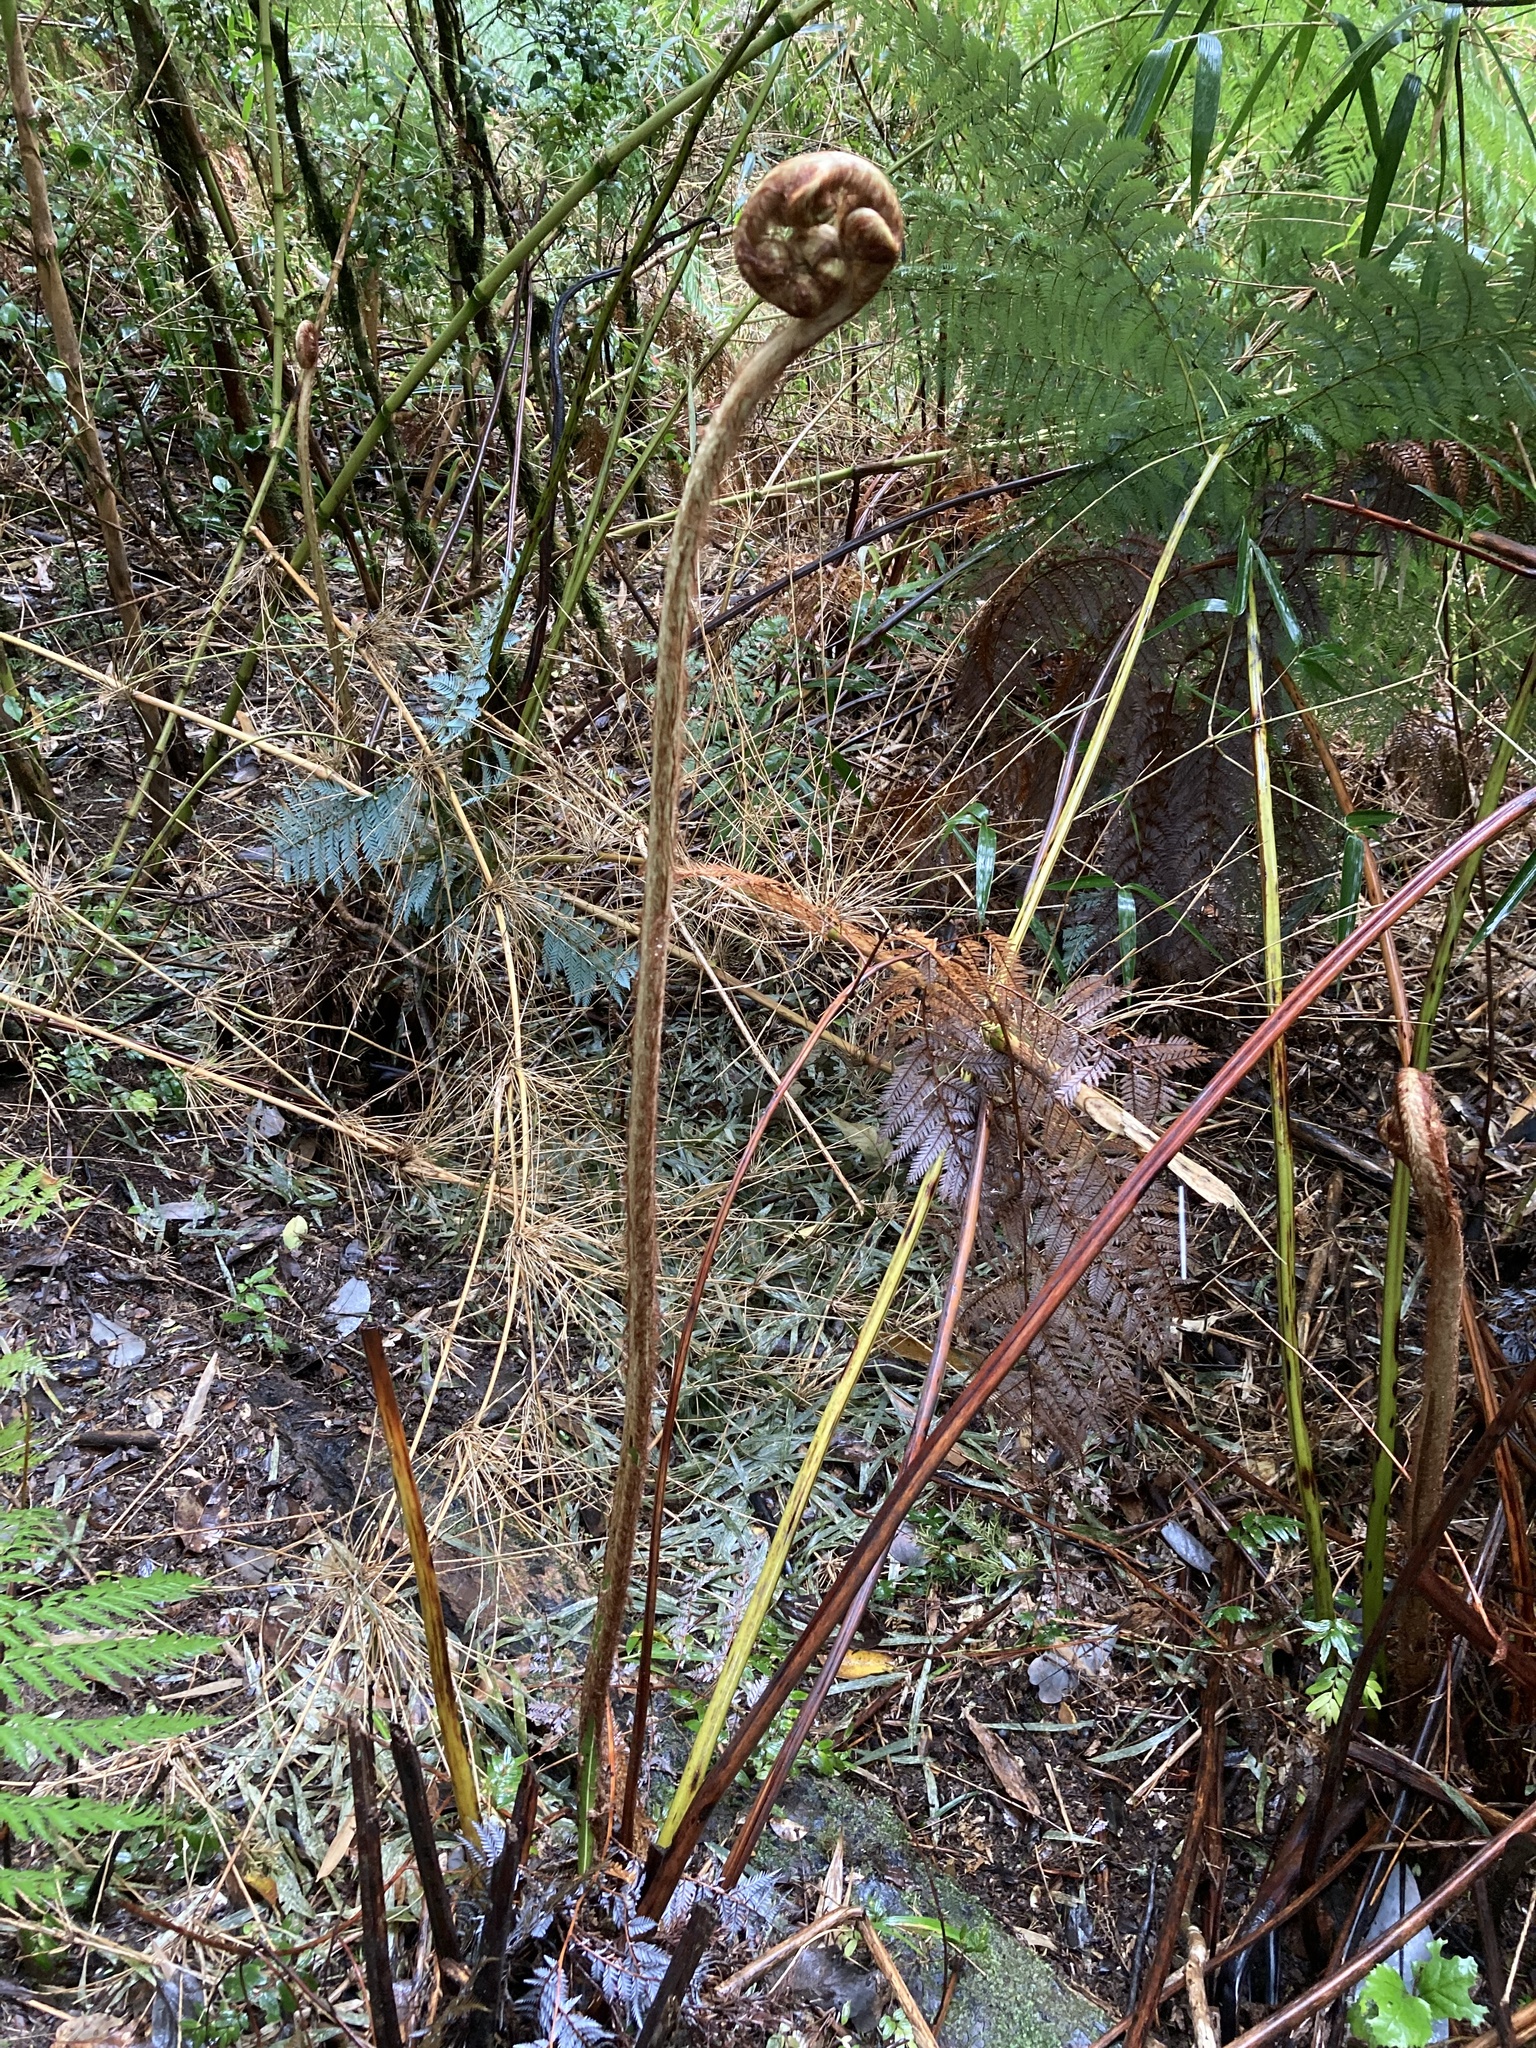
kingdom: Plantae
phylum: Tracheophyta
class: Polypodiopsida
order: Cyatheales
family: Dicksoniaceae
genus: Lophosoria
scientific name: Lophosoria quadripinnata
